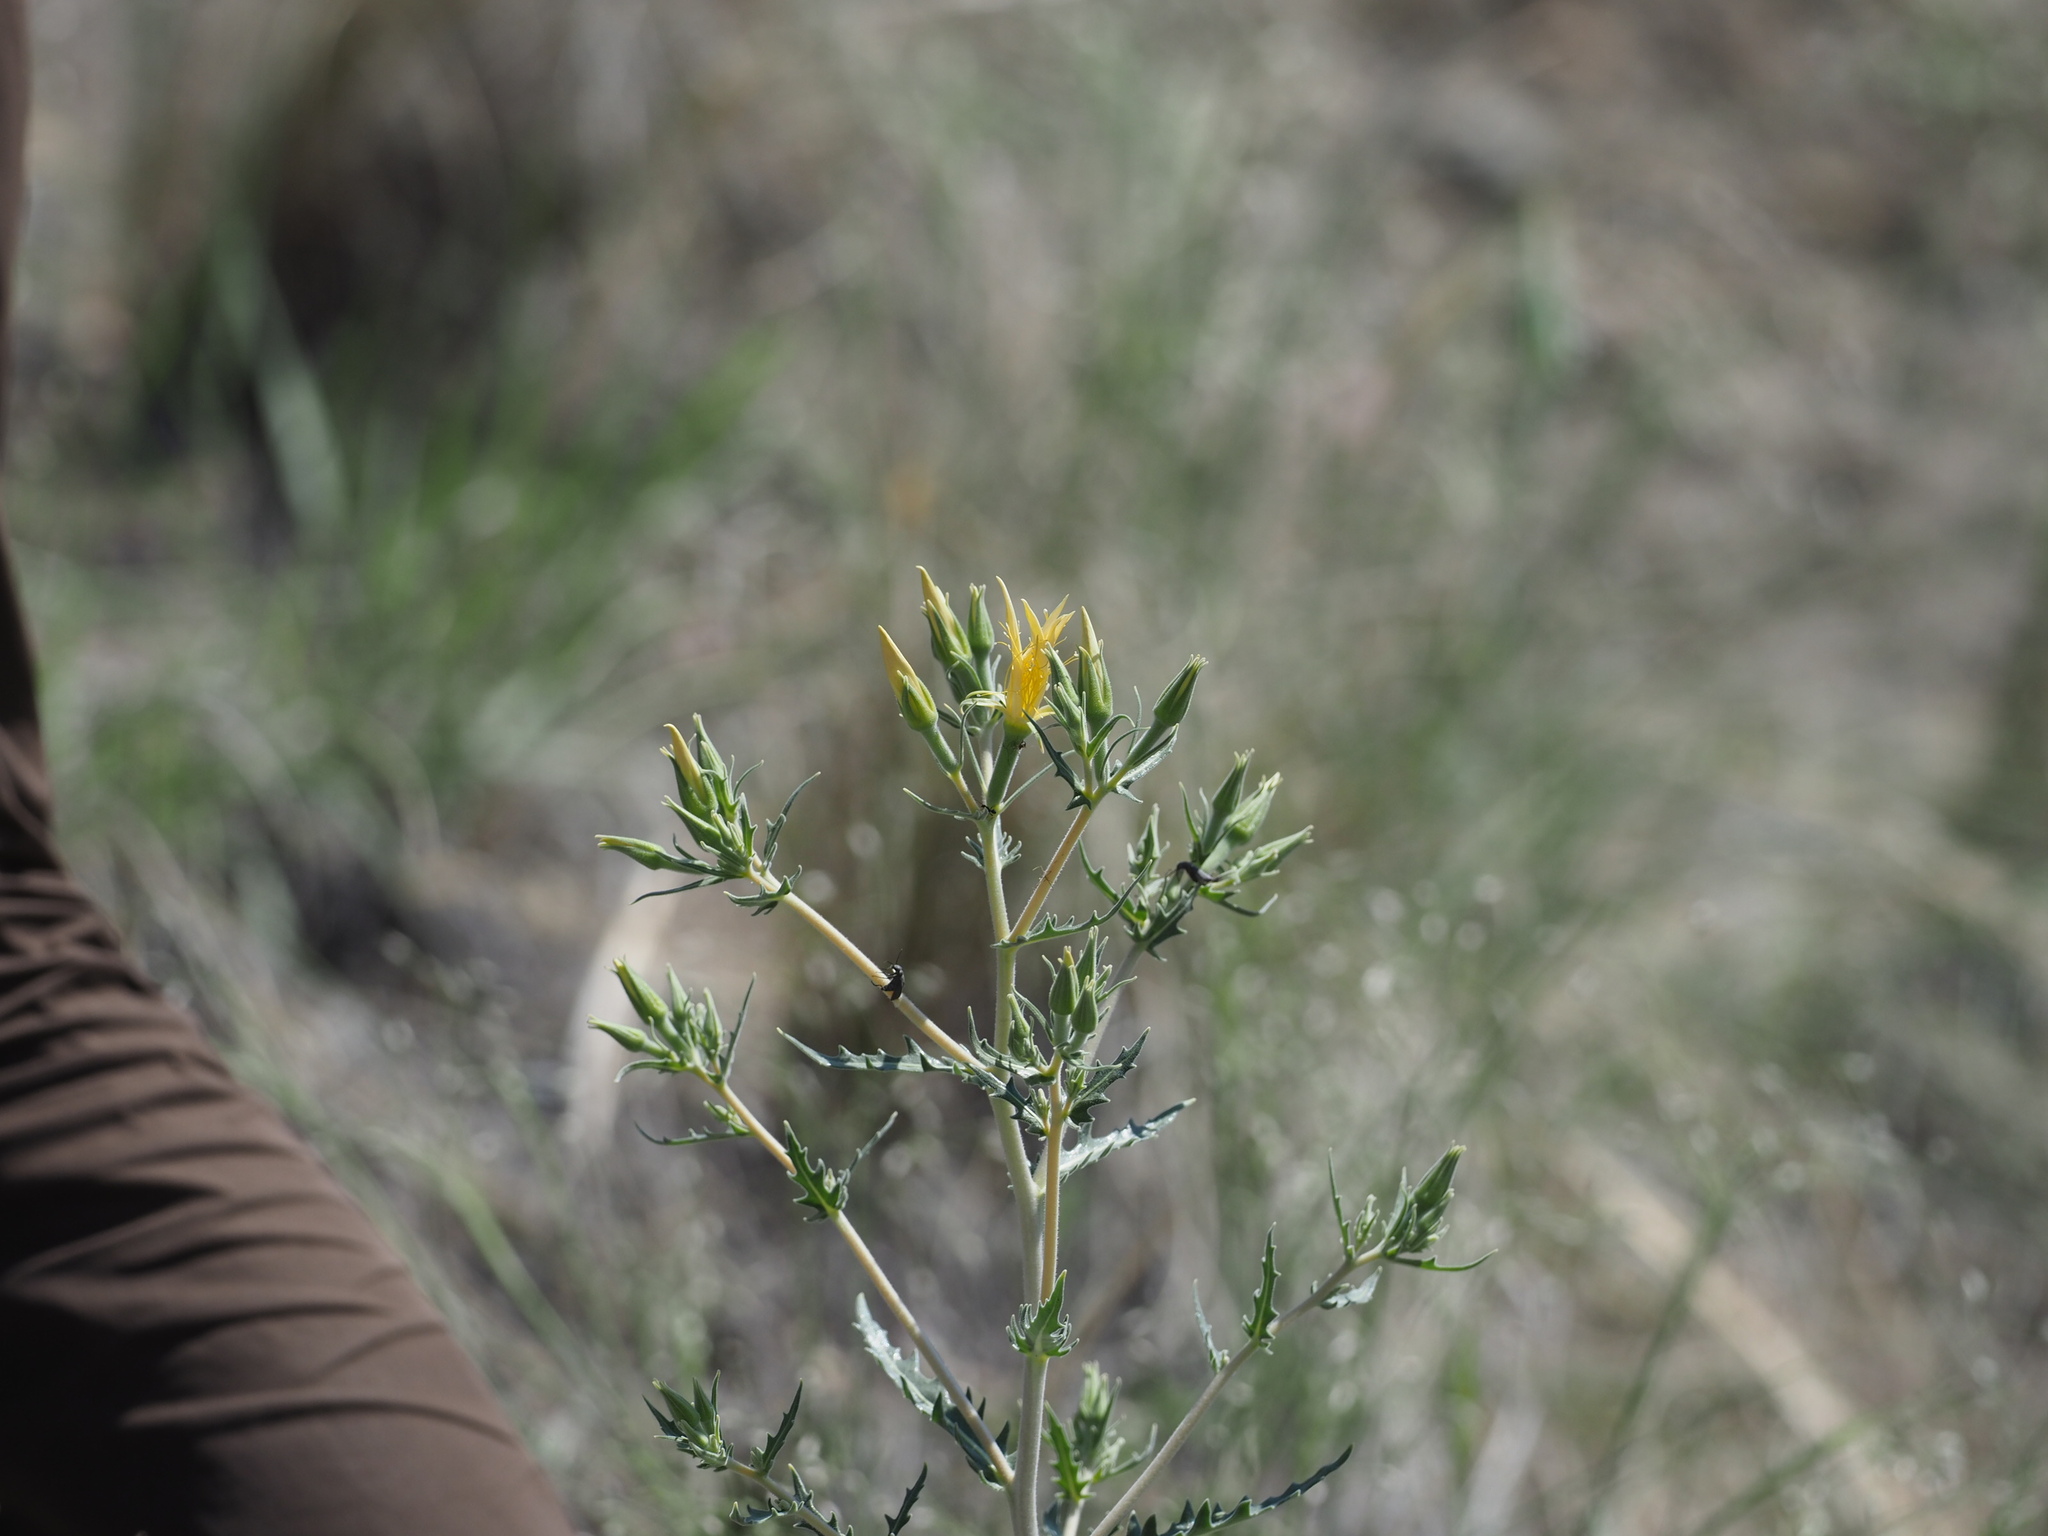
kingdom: Plantae
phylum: Tracheophyta
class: Magnoliopsida
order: Cornales
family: Loasaceae
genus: Mentzelia
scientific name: Mentzelia laevicaulis
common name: Smooth-stem blazingstar
